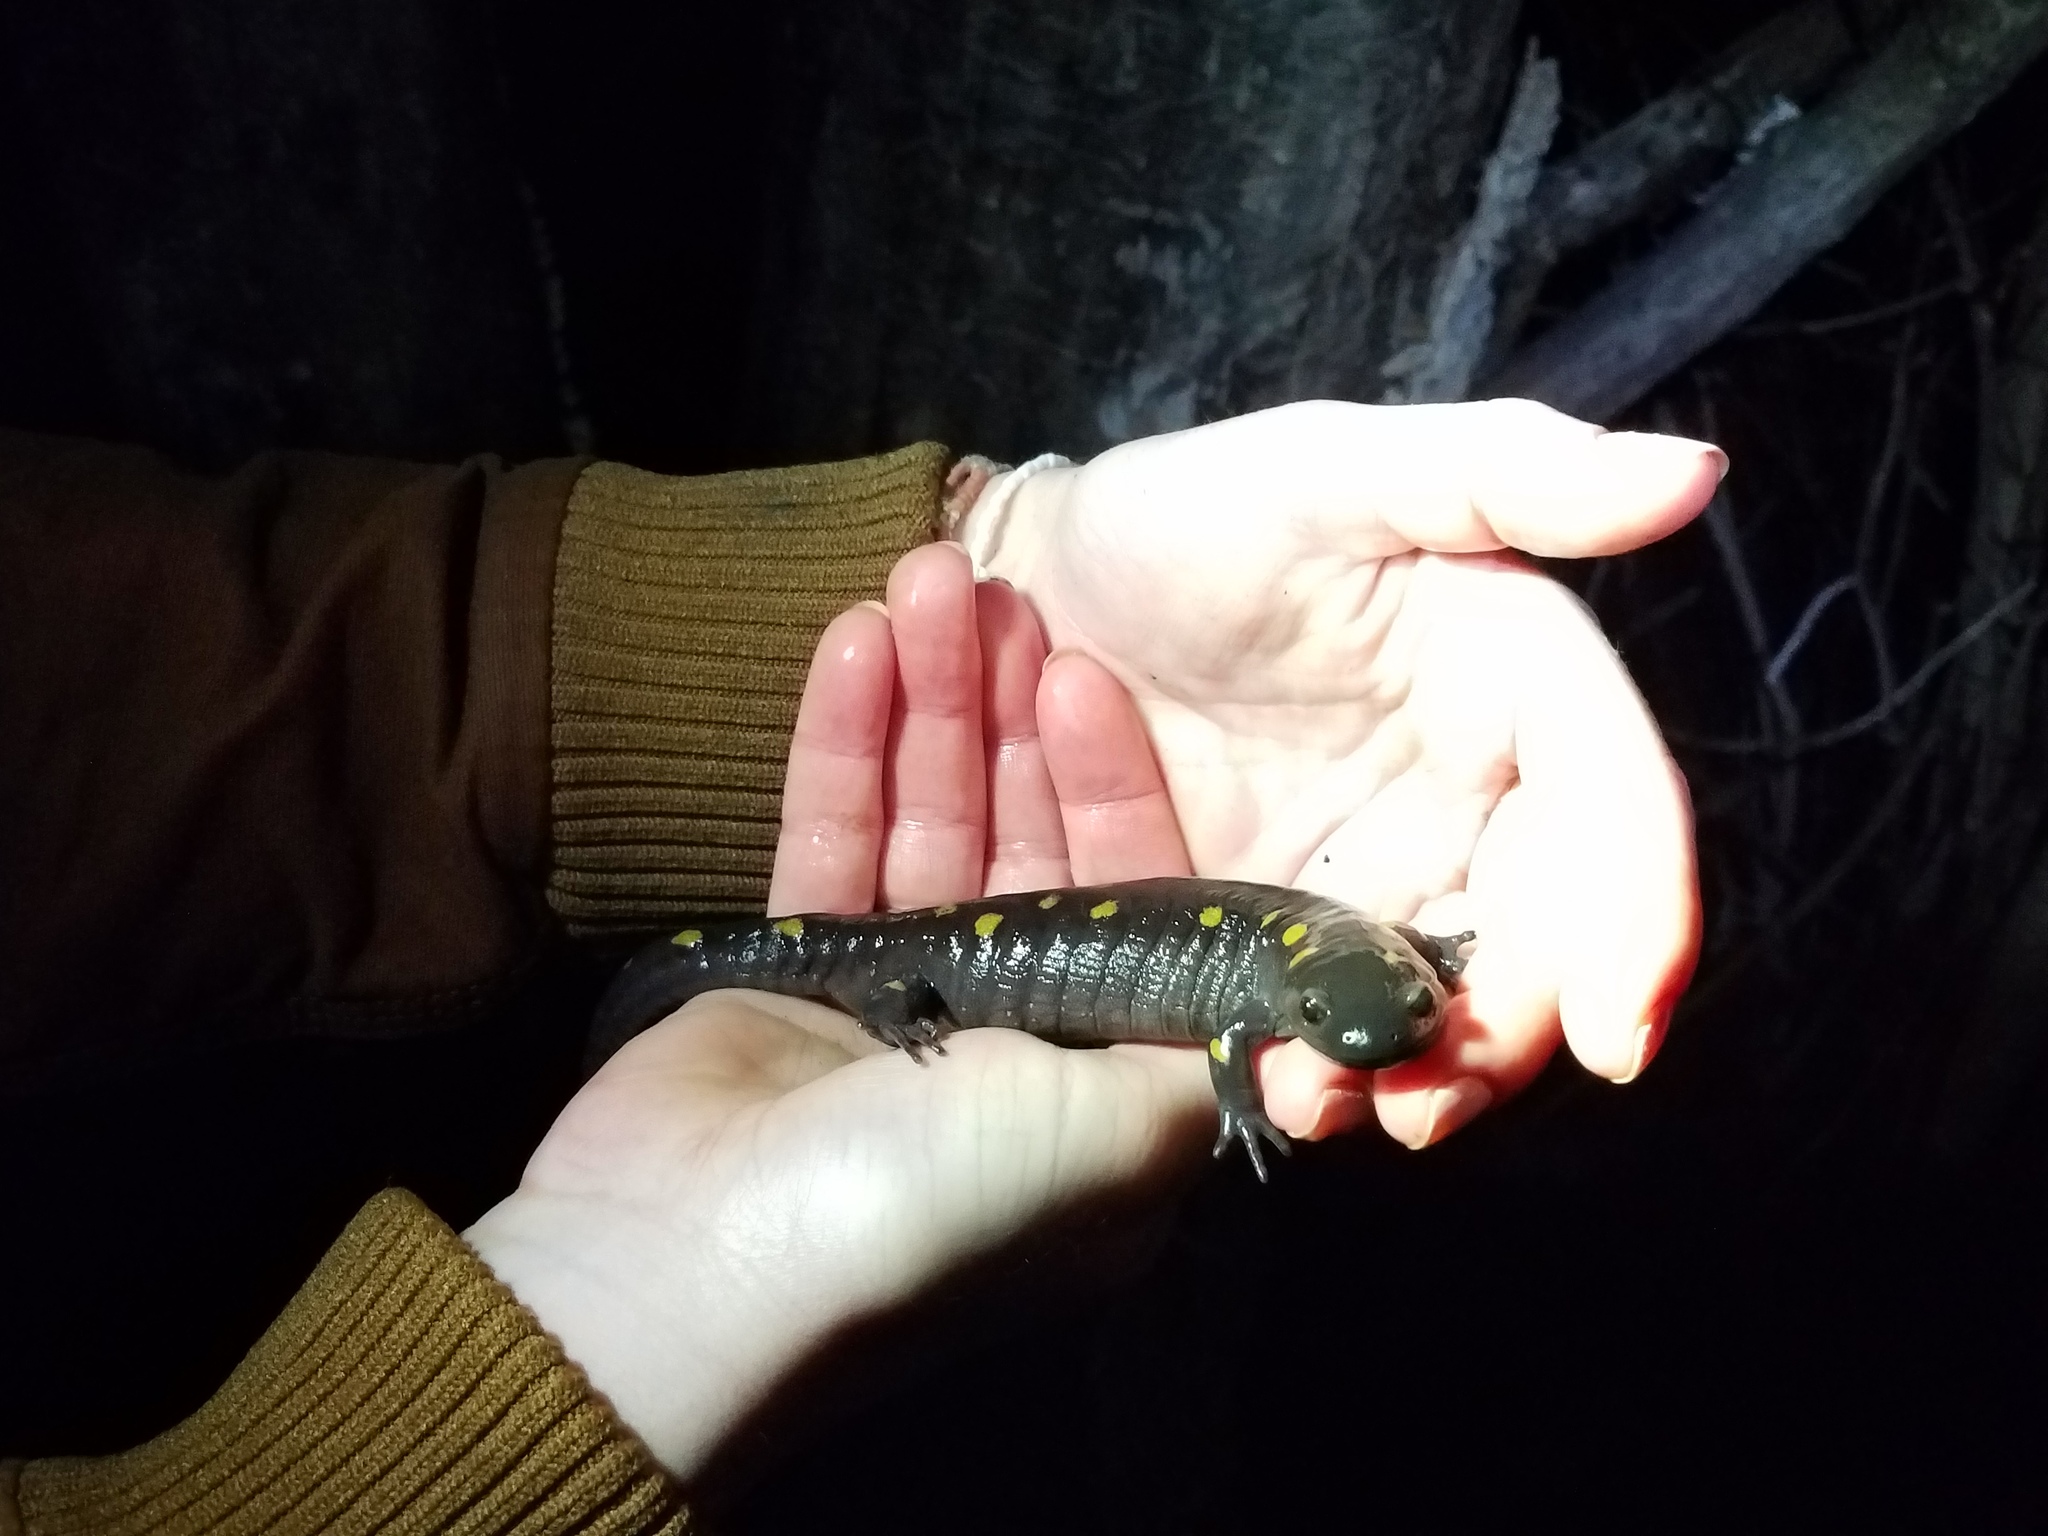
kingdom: Animalia
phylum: Chordata
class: Amphibia
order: Caudata
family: Ambystomatidae
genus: Ambystoma
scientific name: Ambystoma maculatum
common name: Spotted salamander
